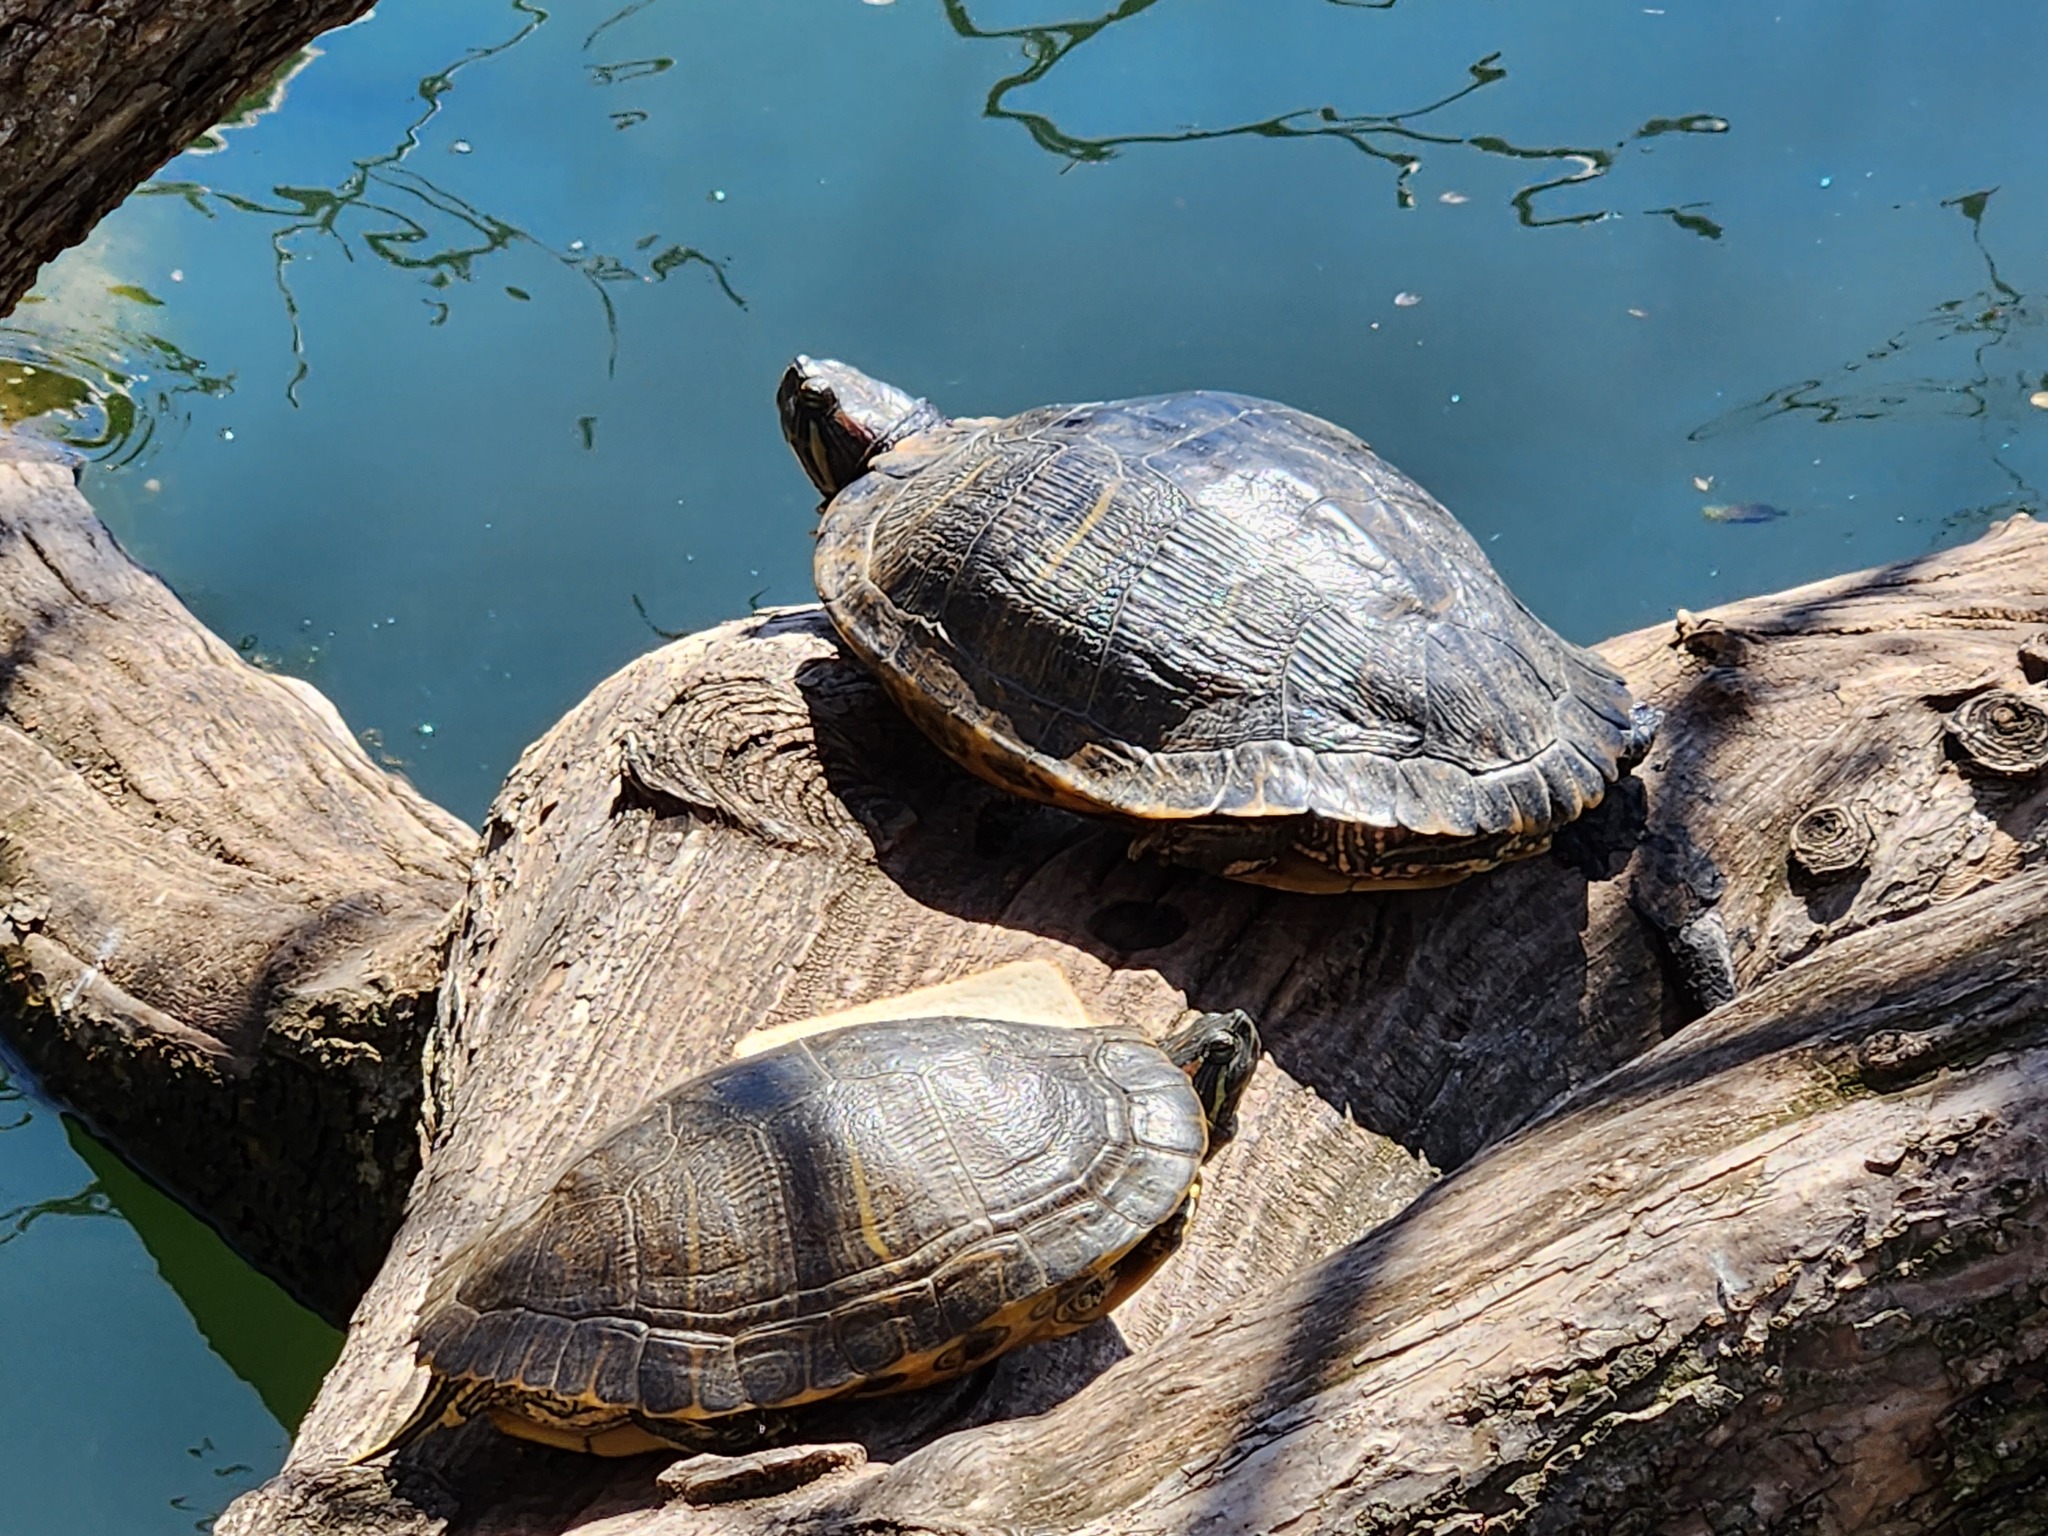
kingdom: Animalia
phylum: Chordata
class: Testudines
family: Emydidae
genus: Trachemys
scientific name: Trachemys scripta
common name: Slider
